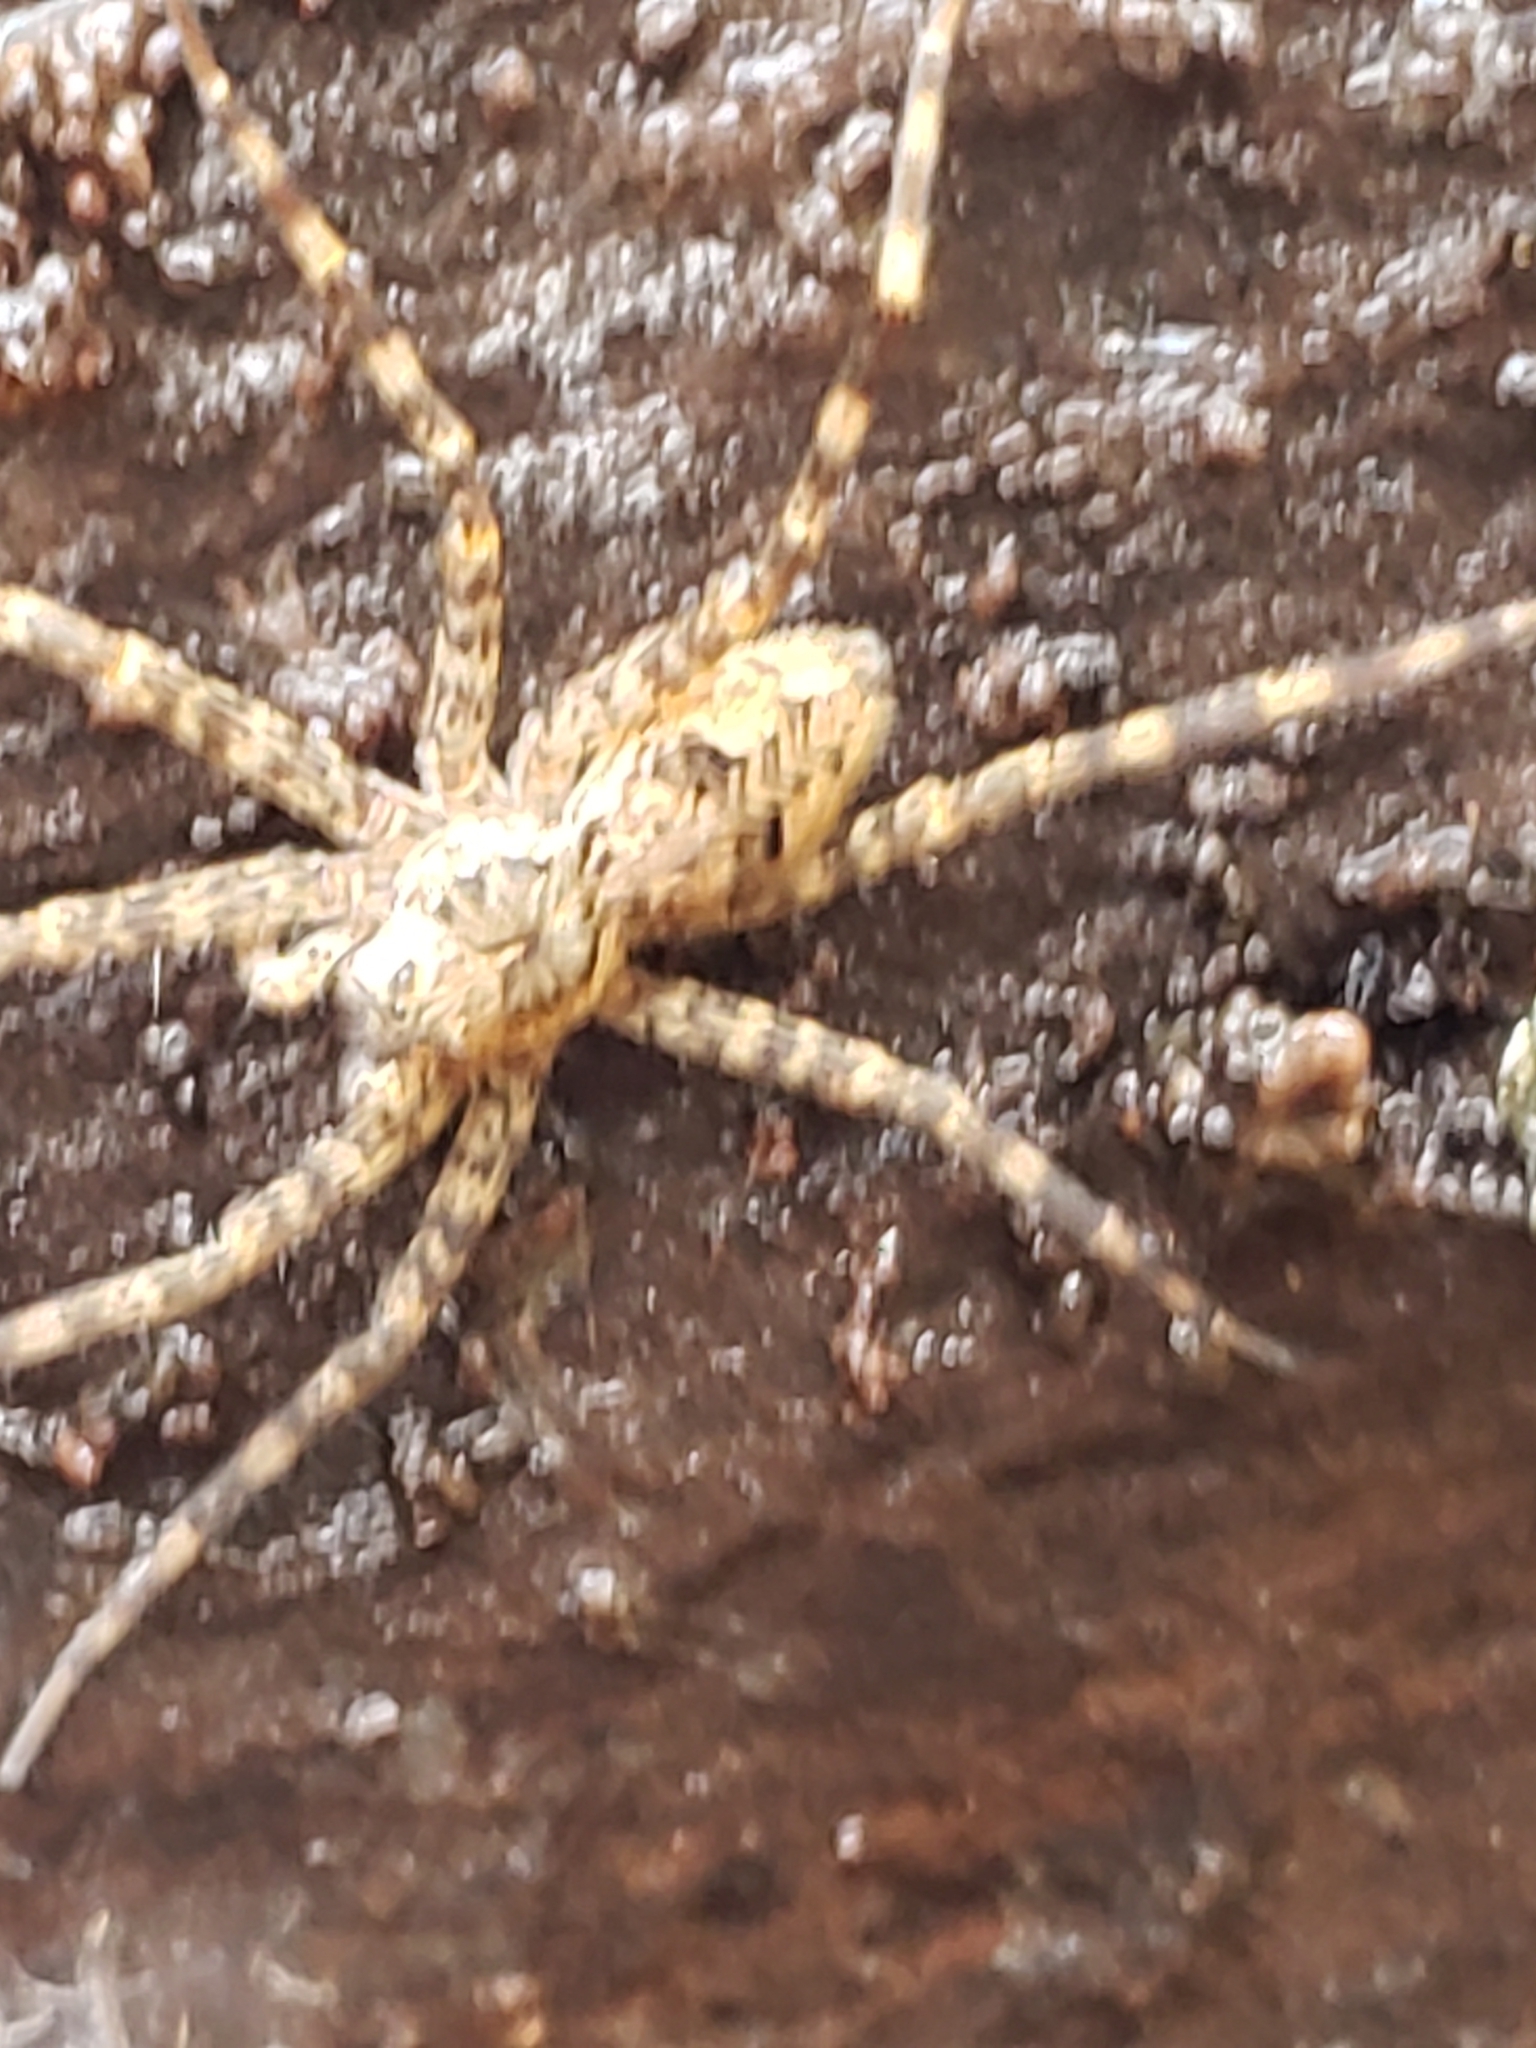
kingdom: Animalia
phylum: Arthropoda
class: Arachnida
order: Araneae
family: Pisauridae
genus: Dolomedes
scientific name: Dolomedes tenebrosus
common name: Dark fishing spider
